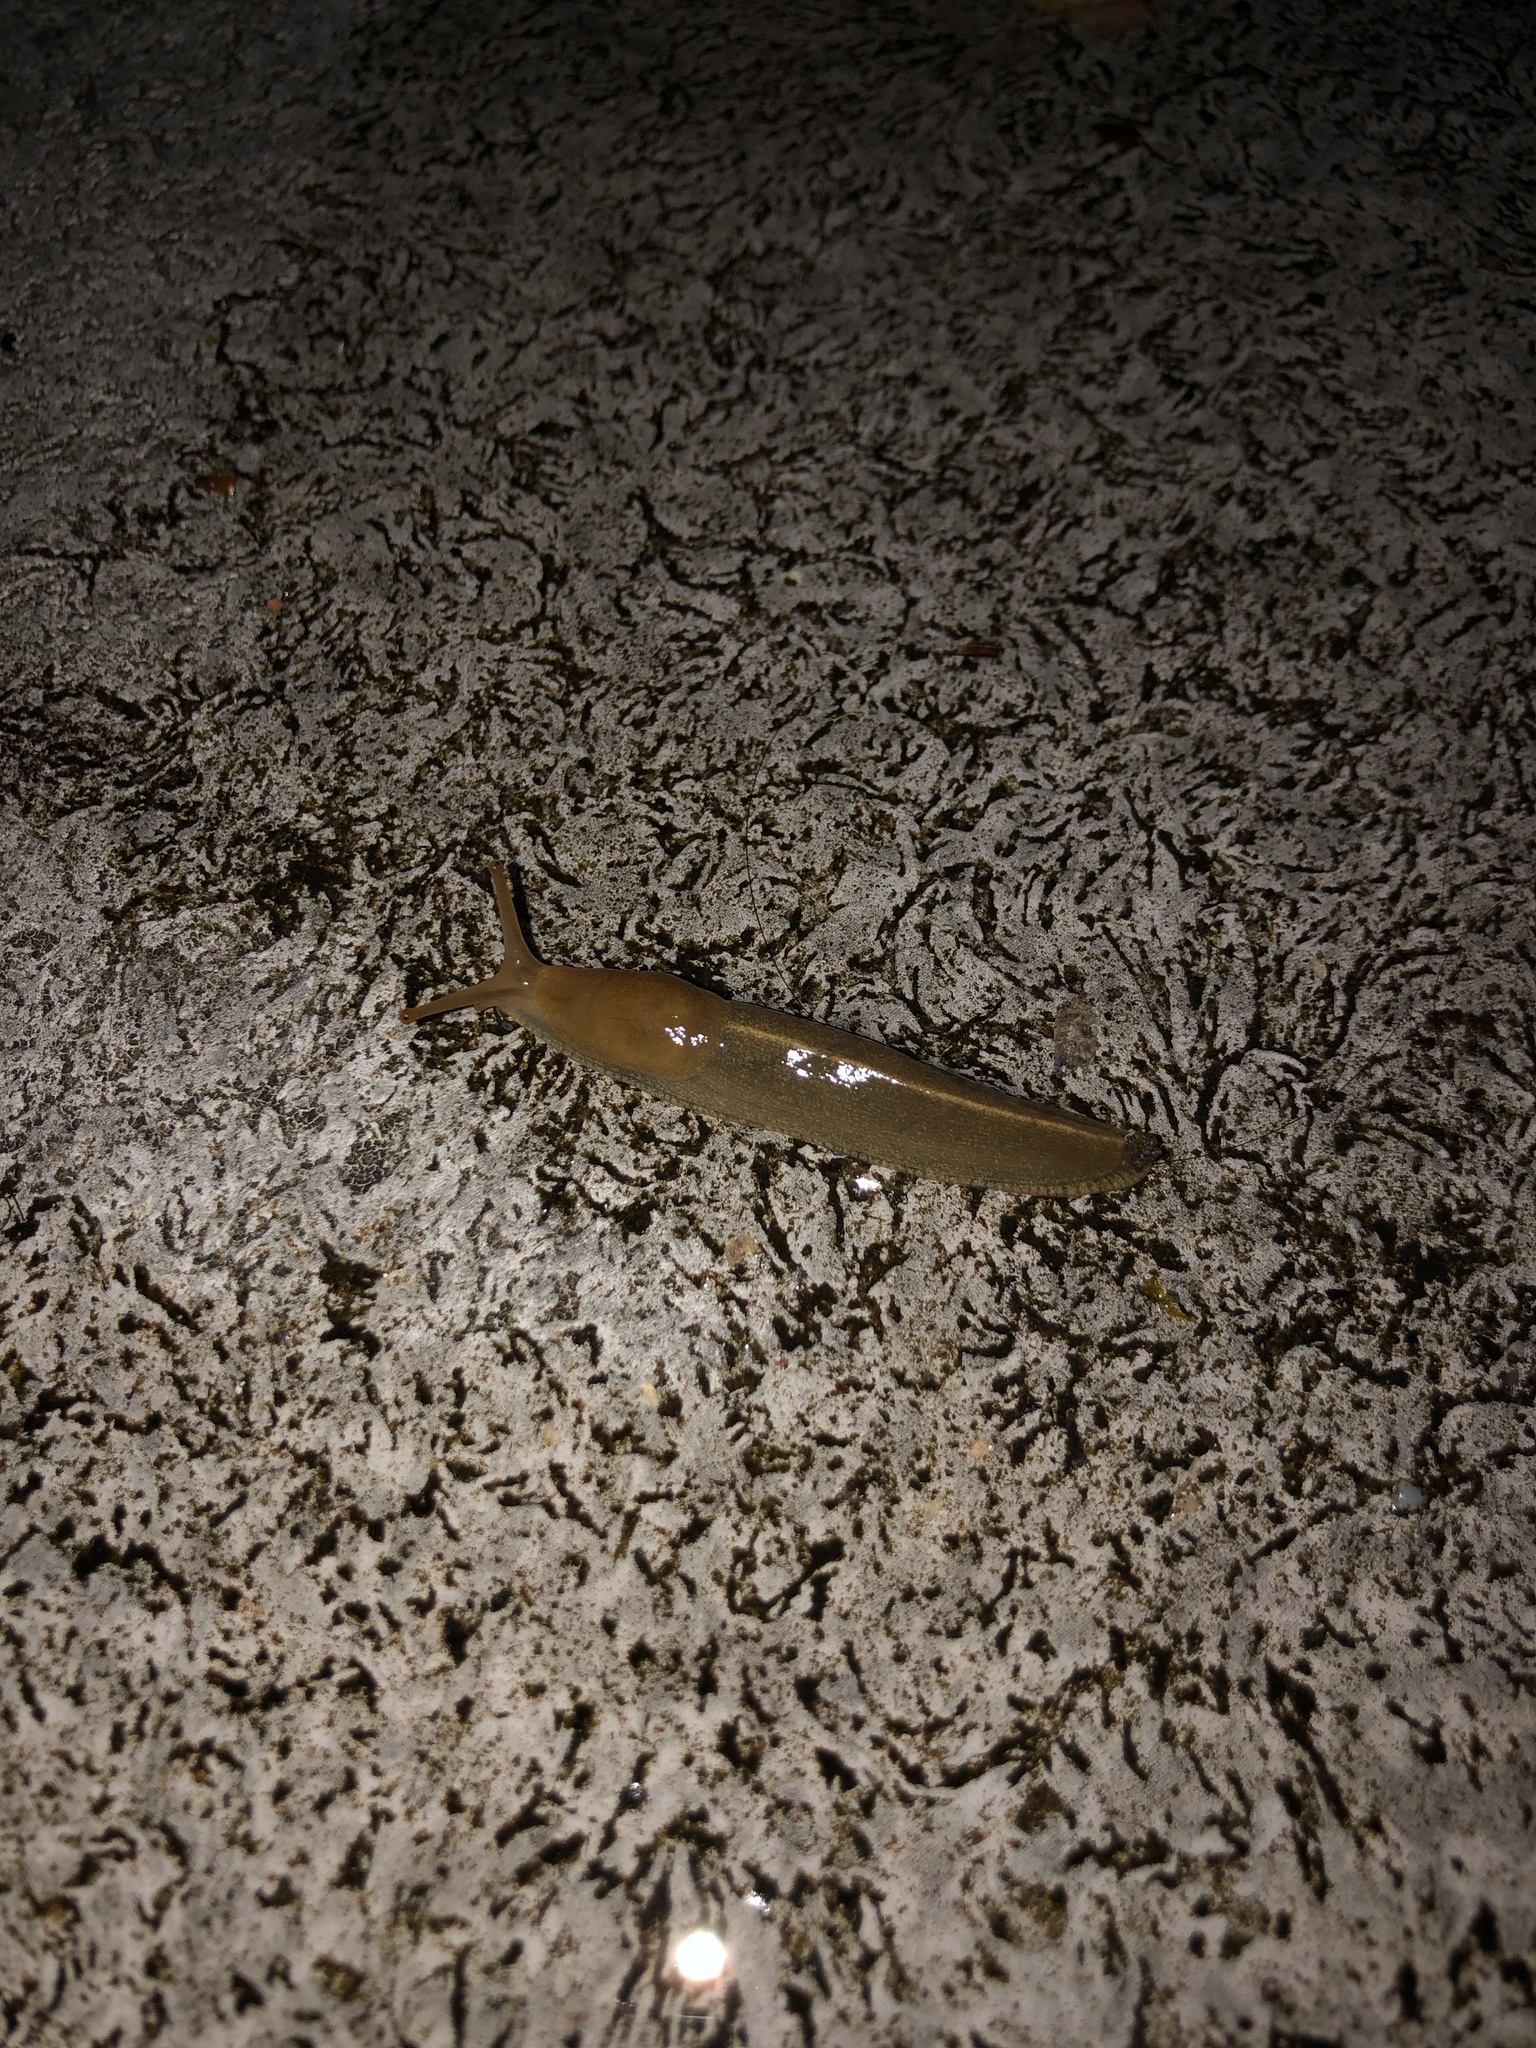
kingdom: Animalia
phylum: Mollusca
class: Gastropoda
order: Stylommatophora
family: Ariolimacidae
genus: Ariolimax
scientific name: Ariolimax columbianus
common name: Pacific banana slug
